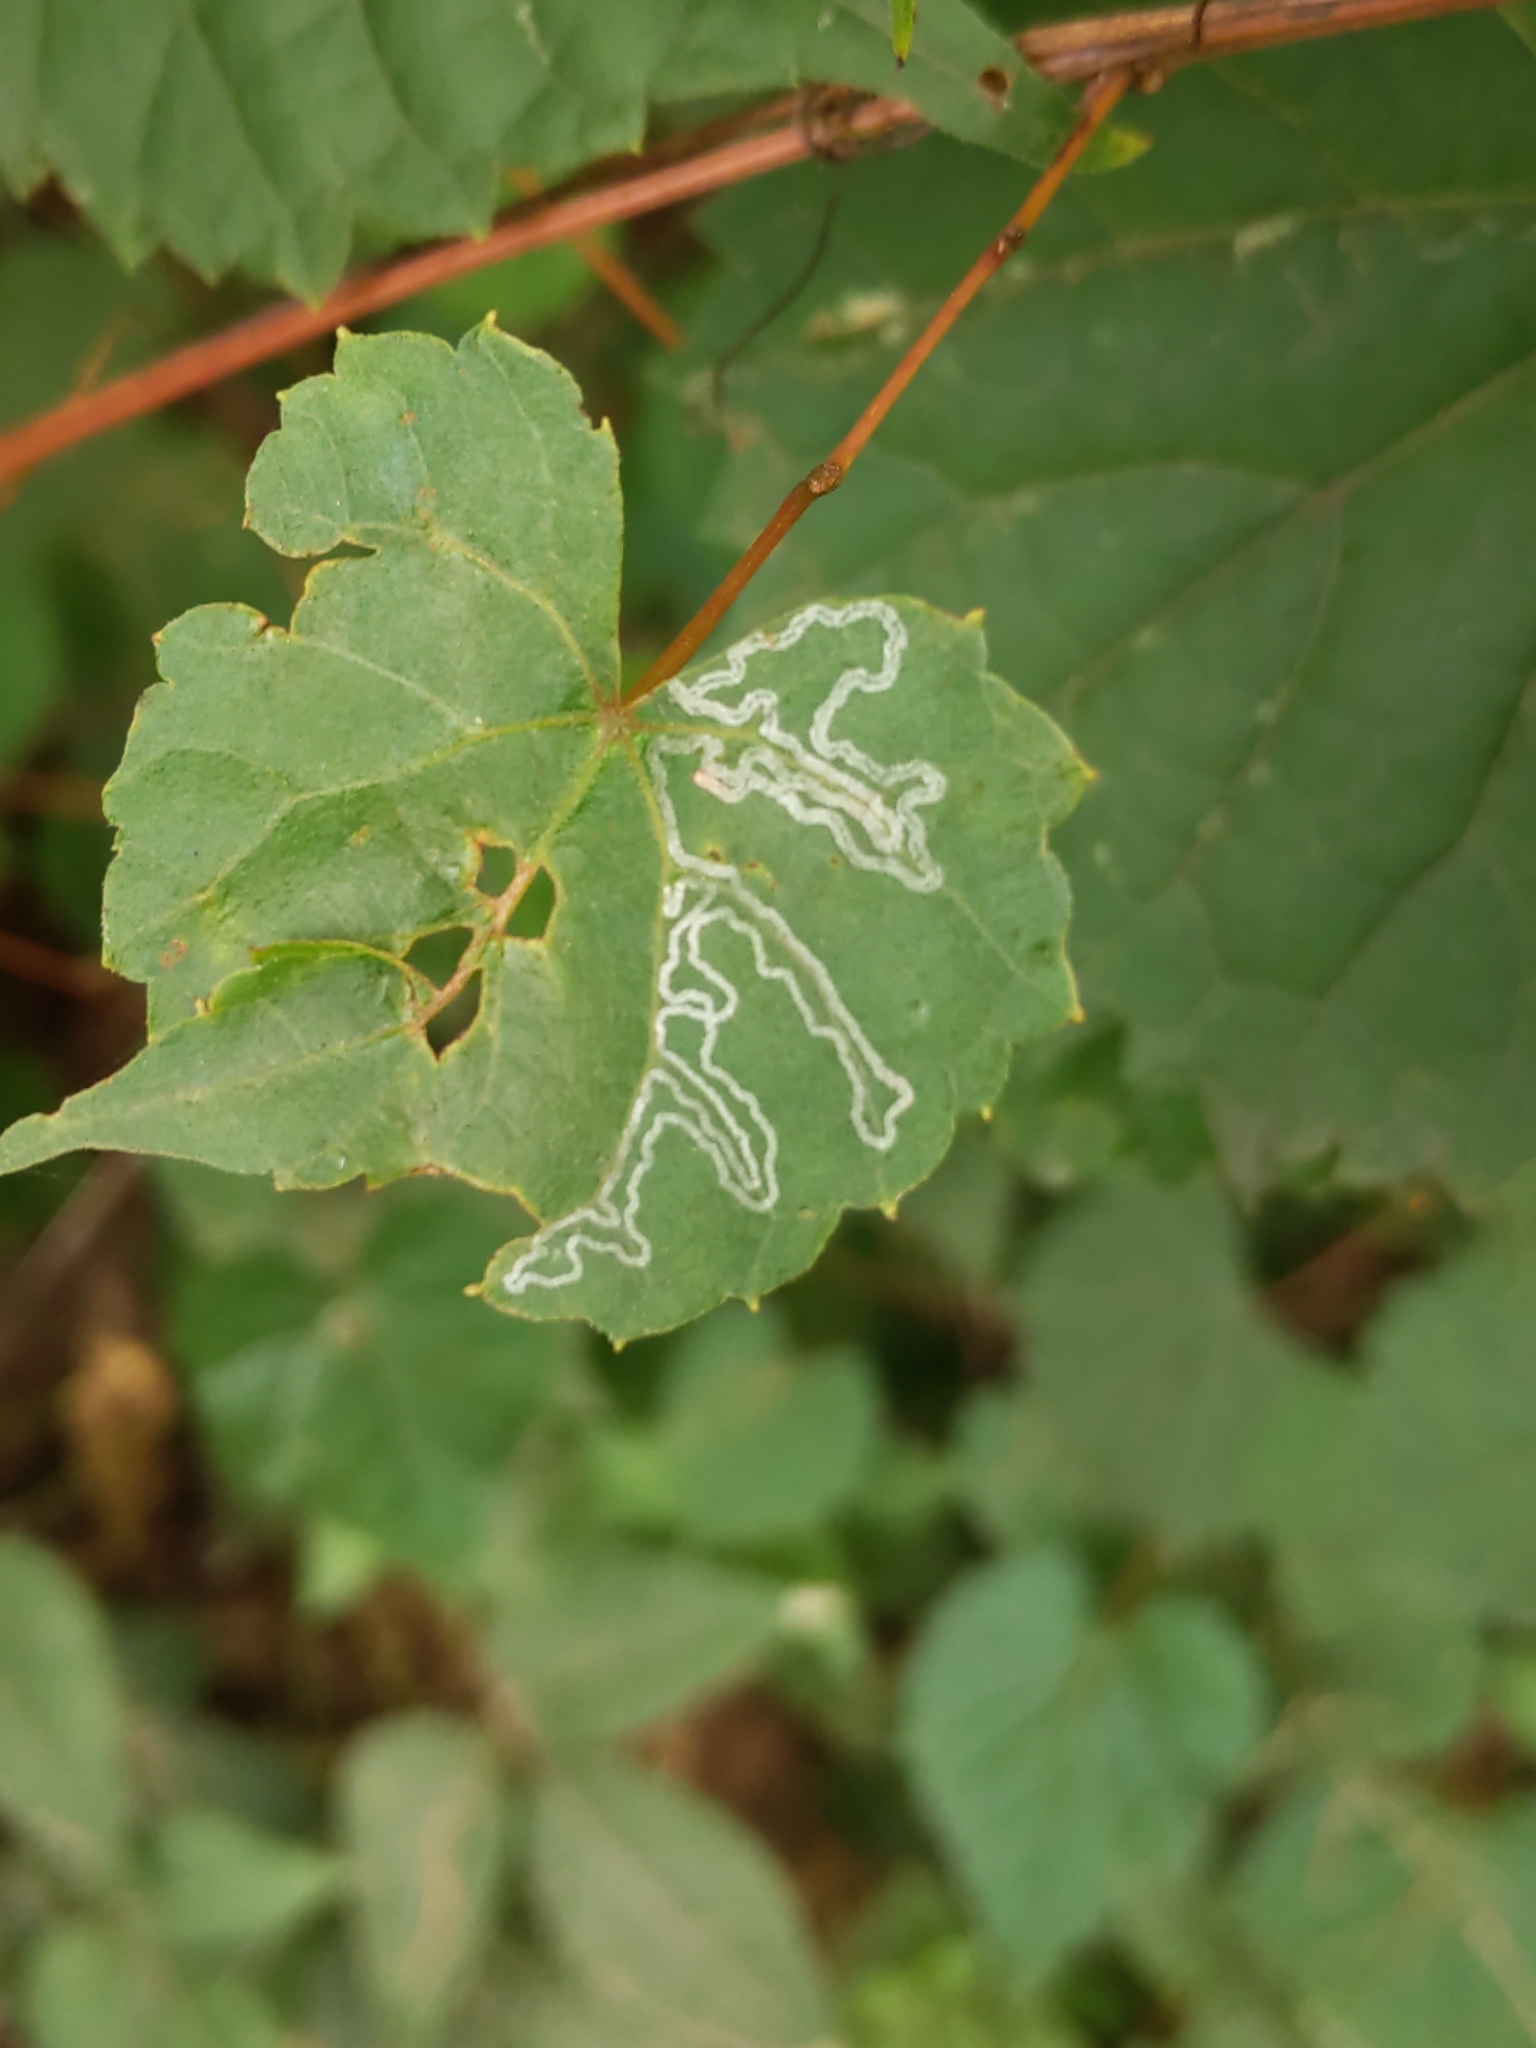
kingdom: Animalia
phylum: Arthropoda
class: Insecta
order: Lepidoptera
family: Gracillariidae
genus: Phyllocnistis
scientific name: Phyllocnistis vitegenella
